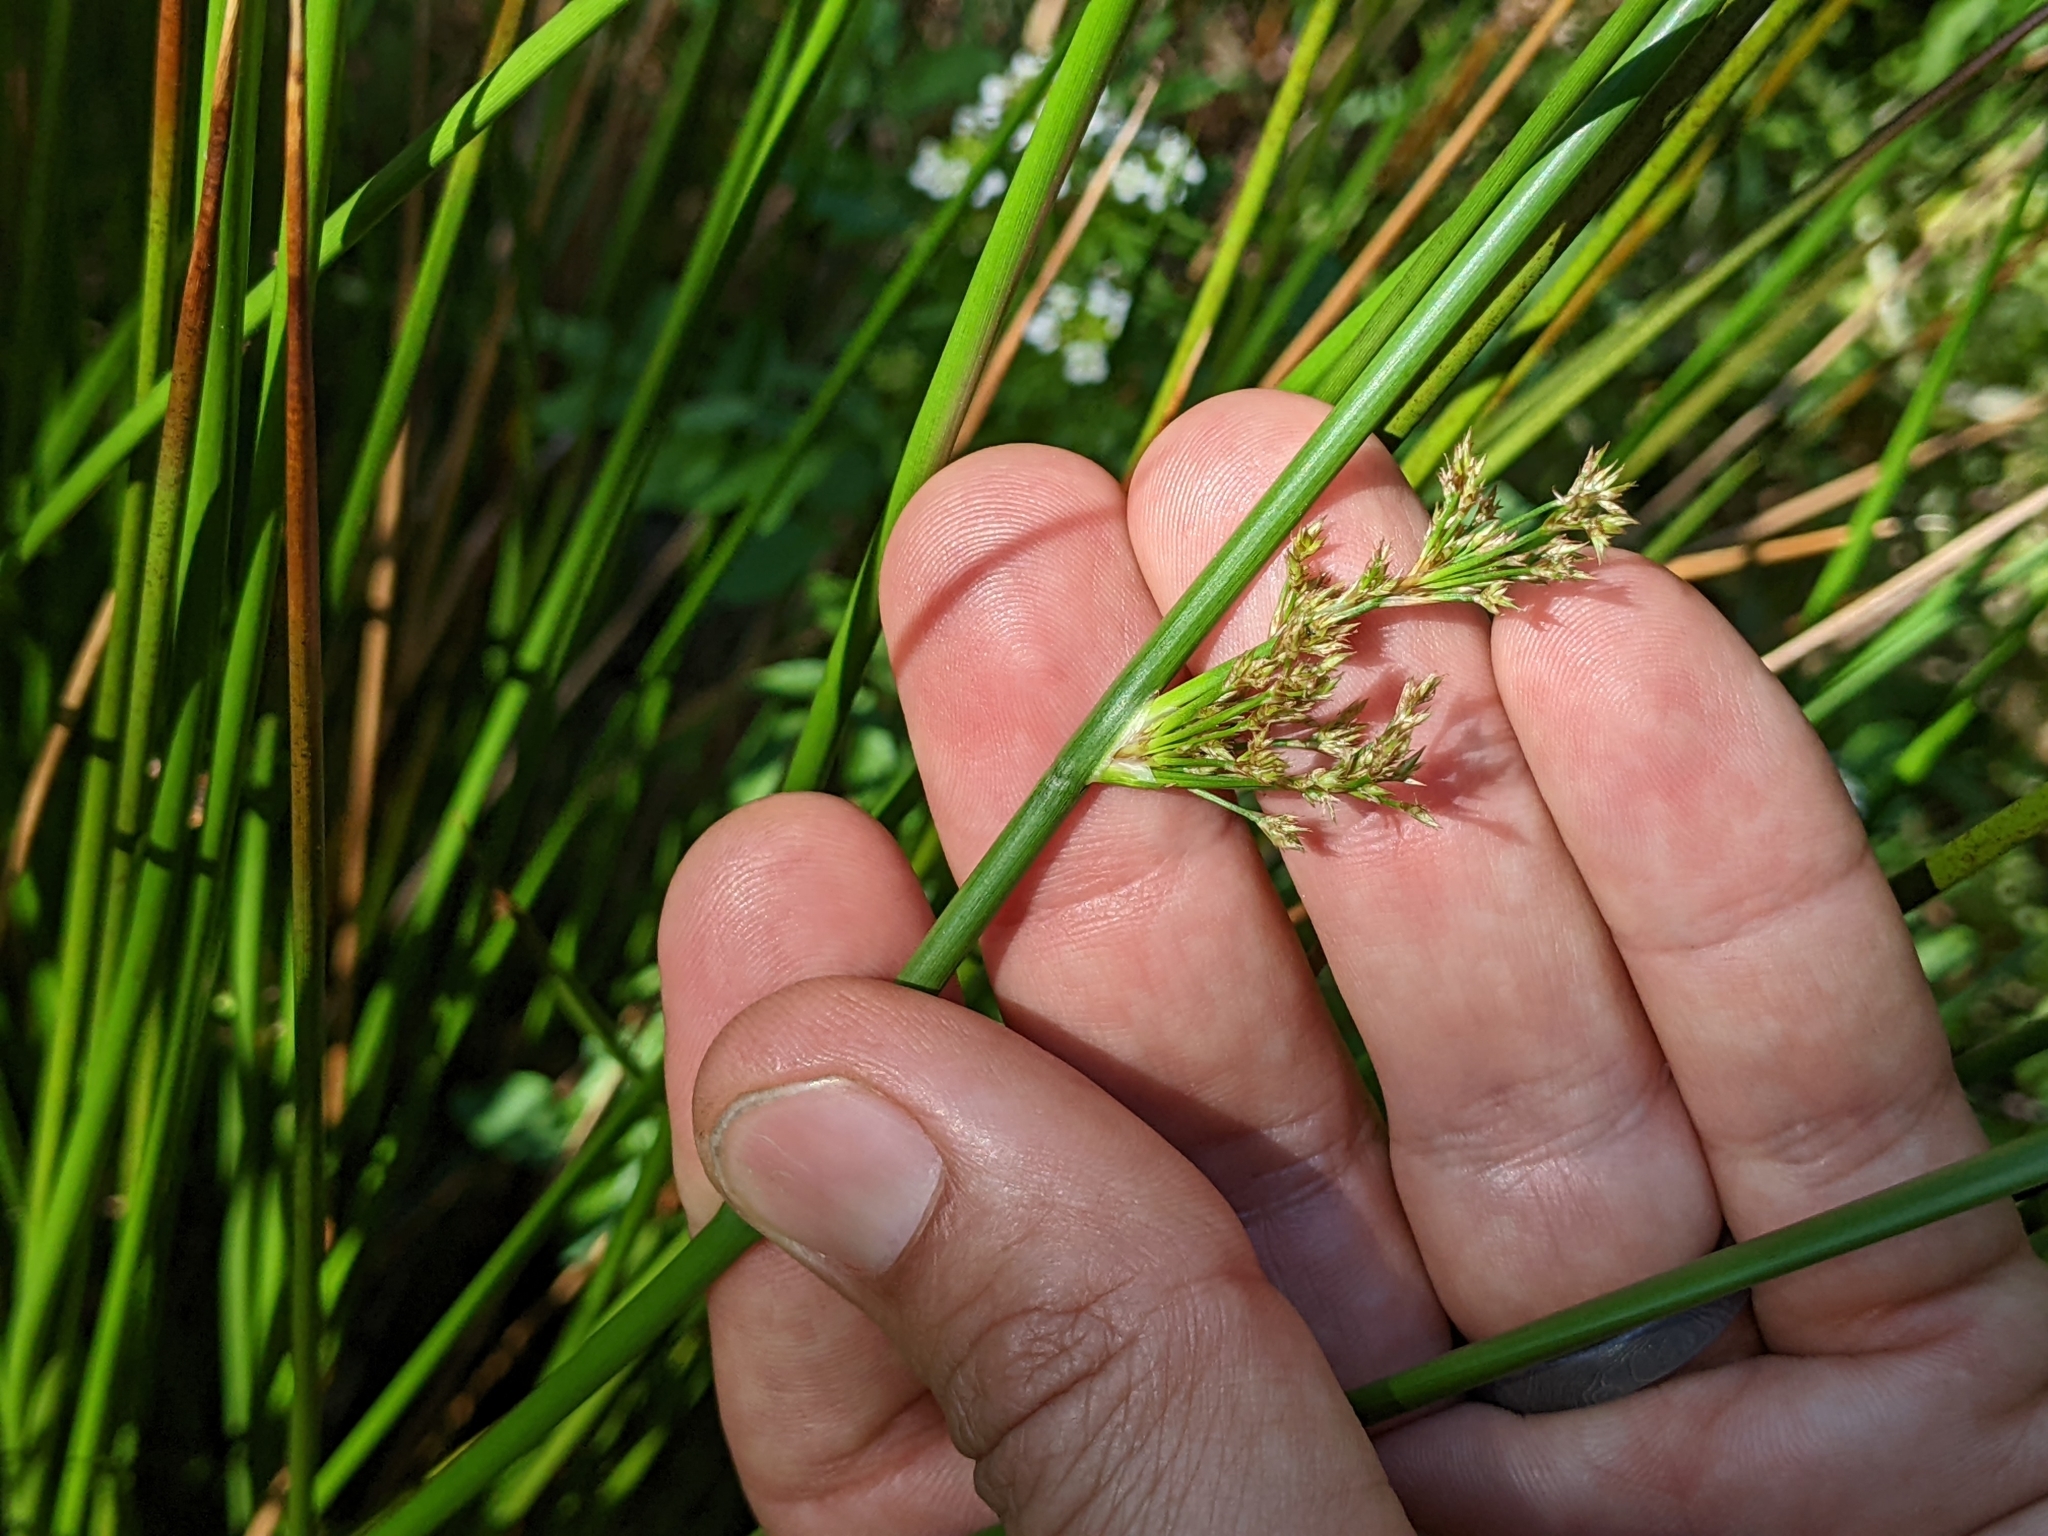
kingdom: Plantae
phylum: Tracheophyta
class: Liliopsida
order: Poales
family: Juncaceae
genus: Juncus
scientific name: Juncus effusus
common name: Soft rush
